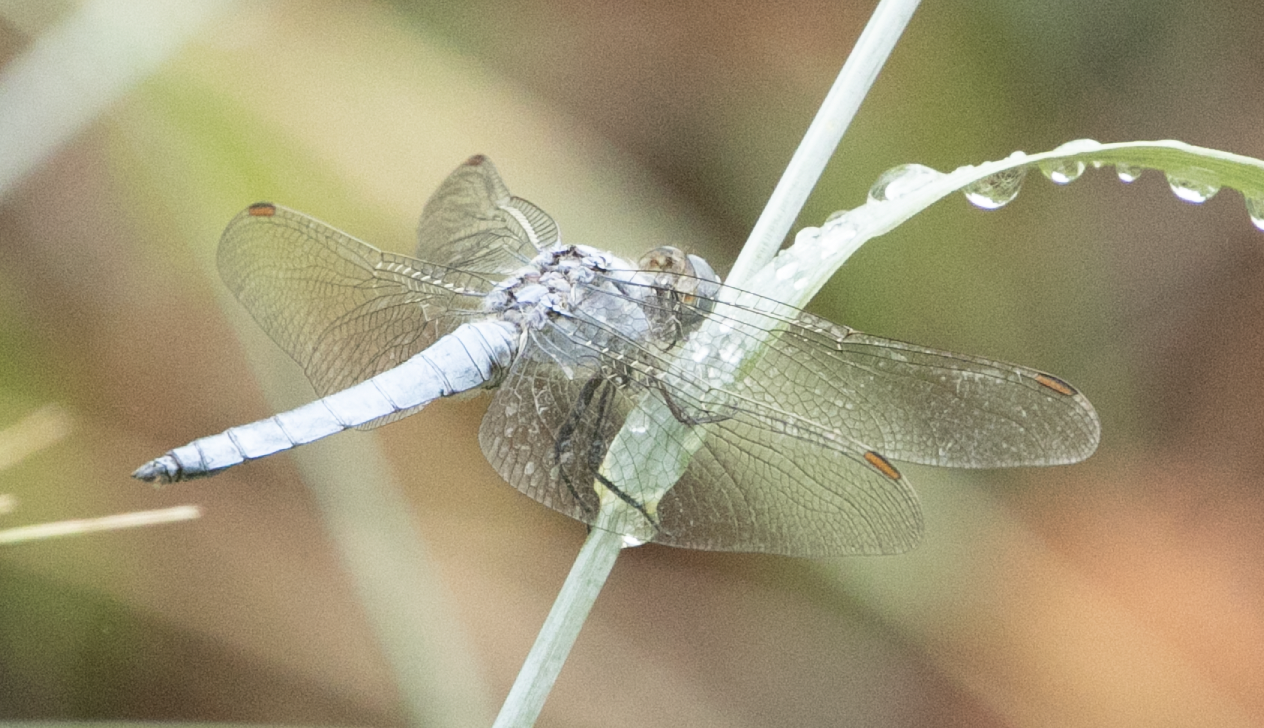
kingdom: Animalia
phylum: Arthropoda
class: Insecta
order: Odonata
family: Libellulidae
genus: Orthetrum
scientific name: Orthetrum brunneum
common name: Southern skimmer
